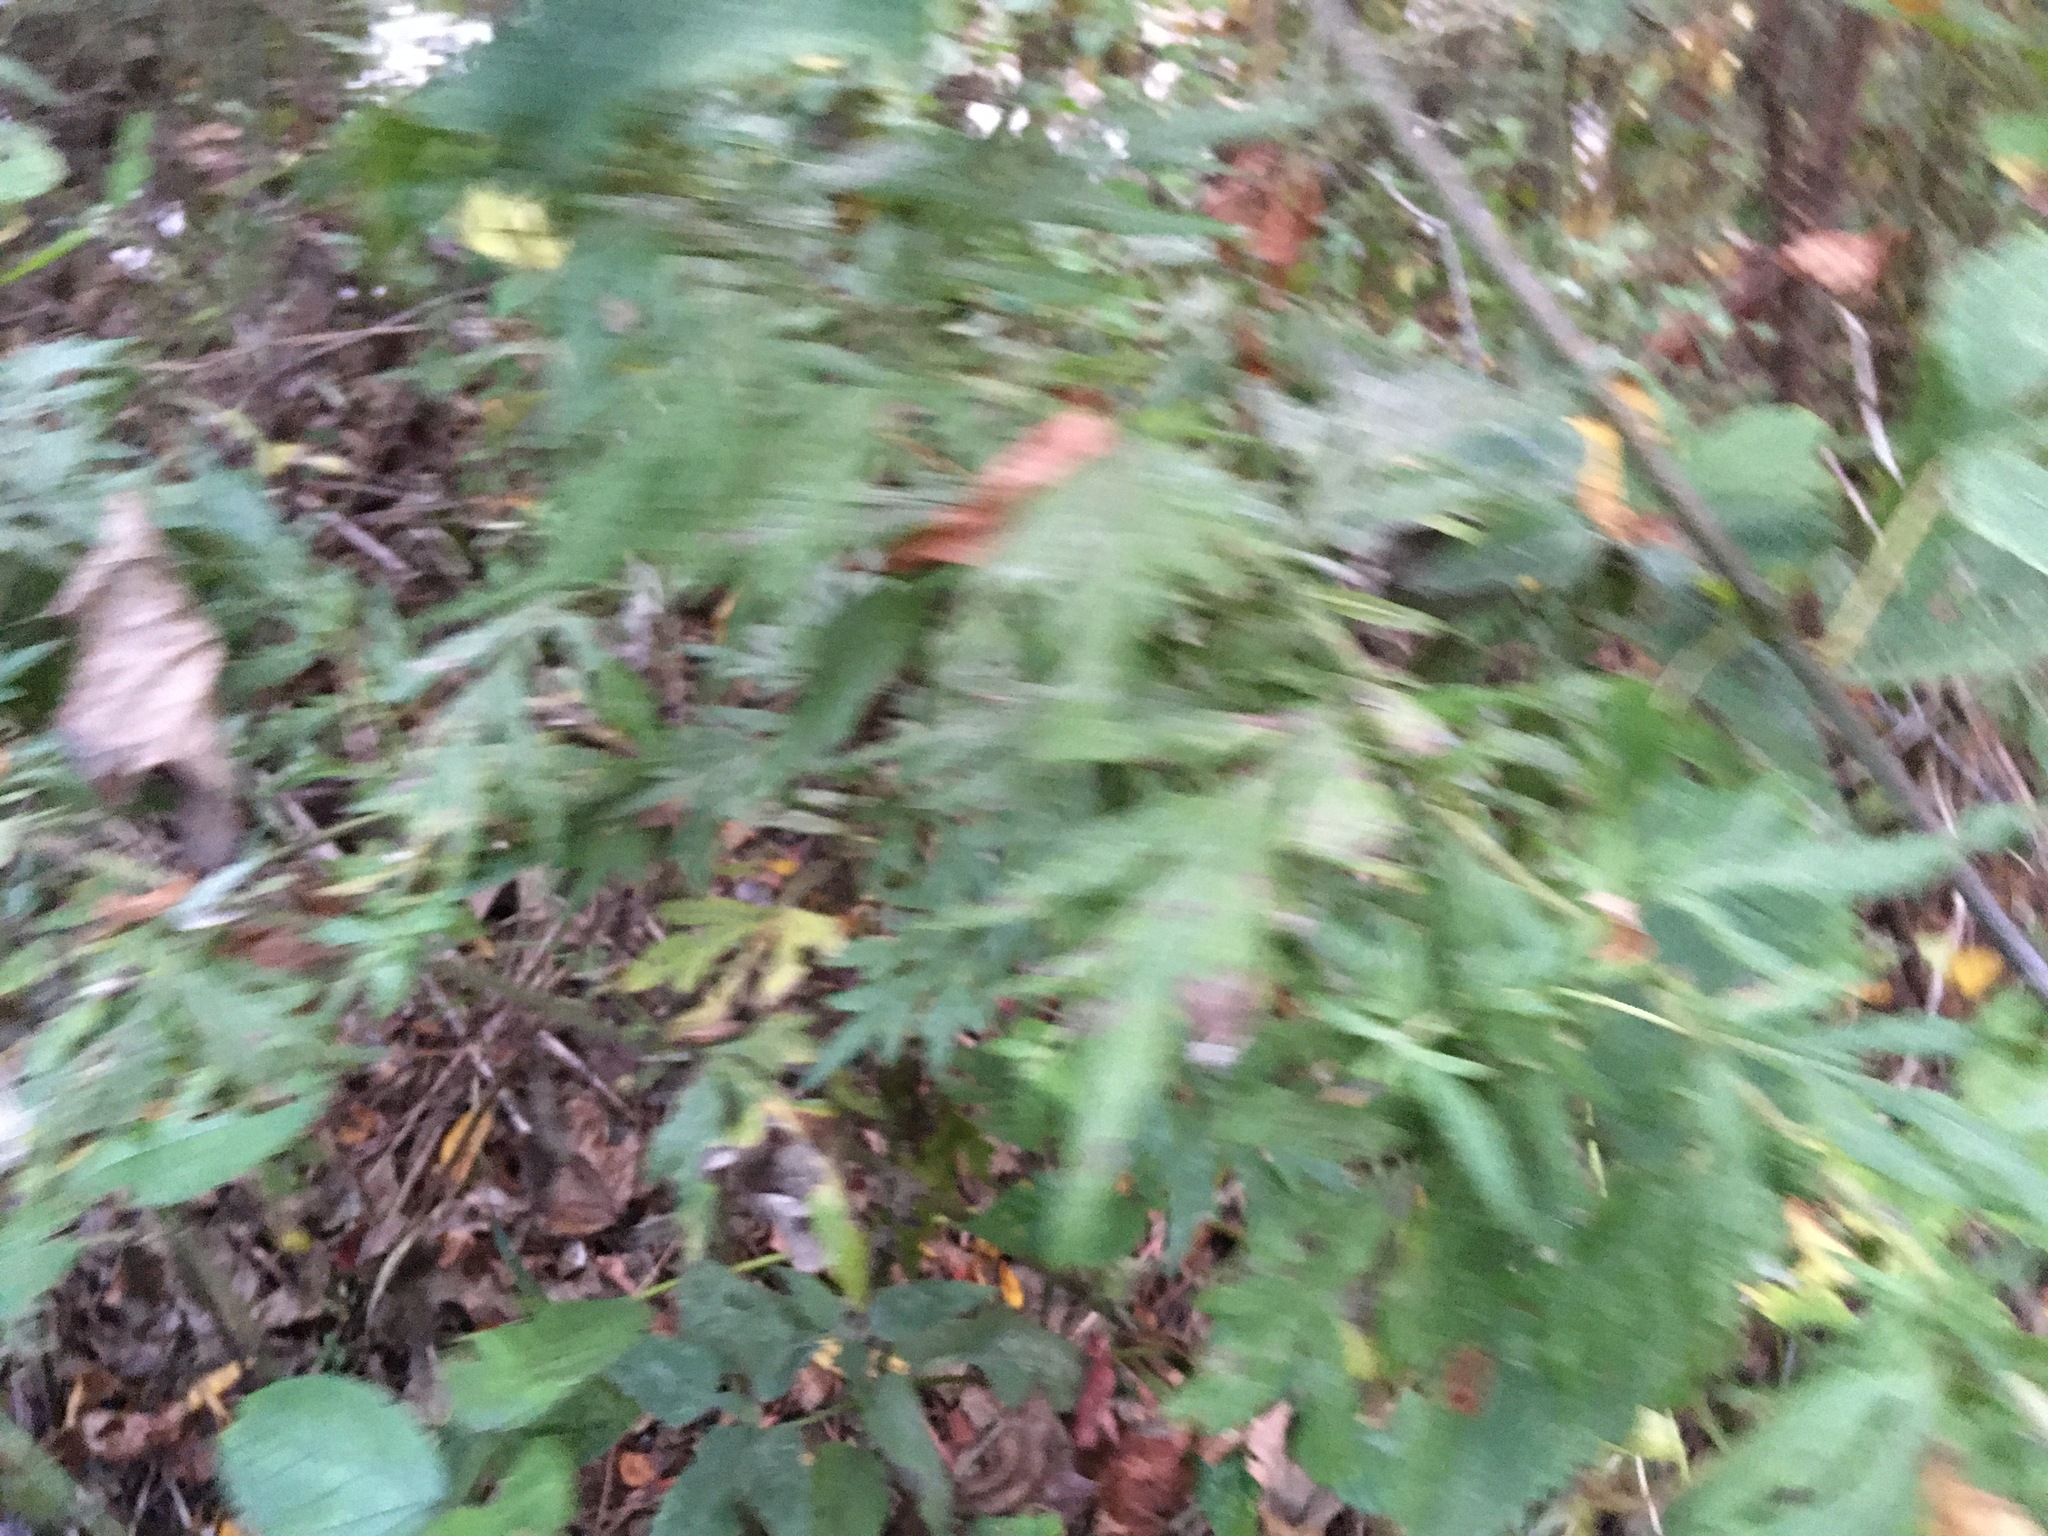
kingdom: Plantae
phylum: Tracheophyta
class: Magnoliopsida
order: Asterales
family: Asteraceae
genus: Artemisia
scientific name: Artemisia vulgaris
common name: Mugwort
